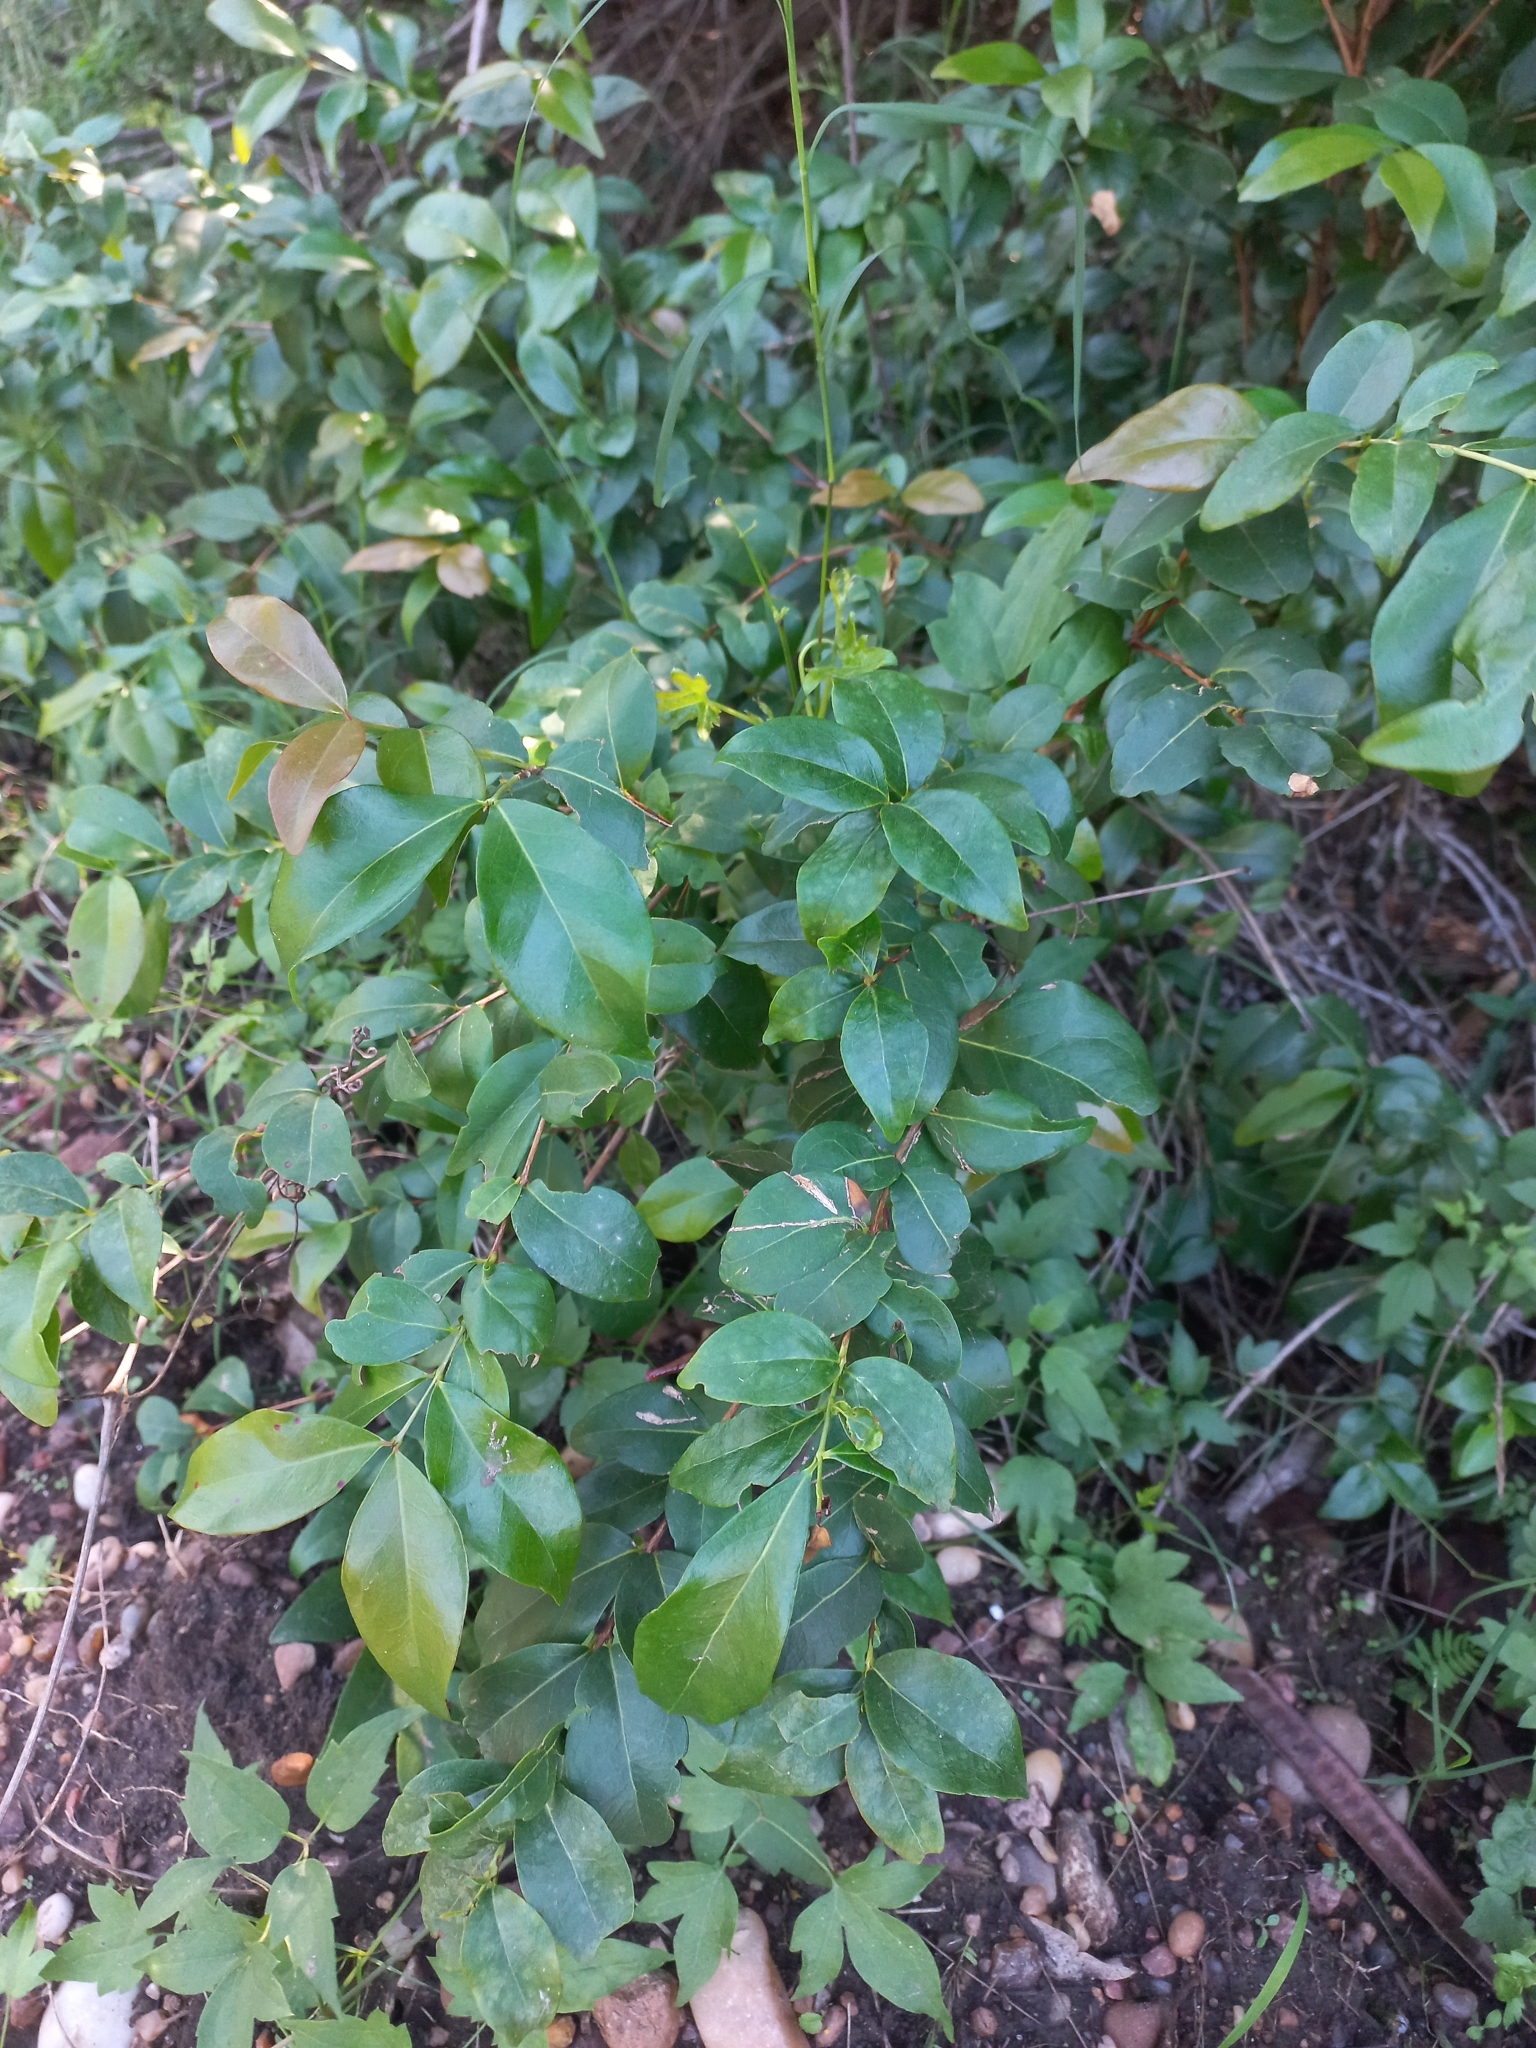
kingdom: Plantae
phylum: Tracheophyta
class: Magnoliopsida
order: Myrtales
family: Myrtaceae
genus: Eugenia
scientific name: Eugenia uniflora
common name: Surinam cherry
